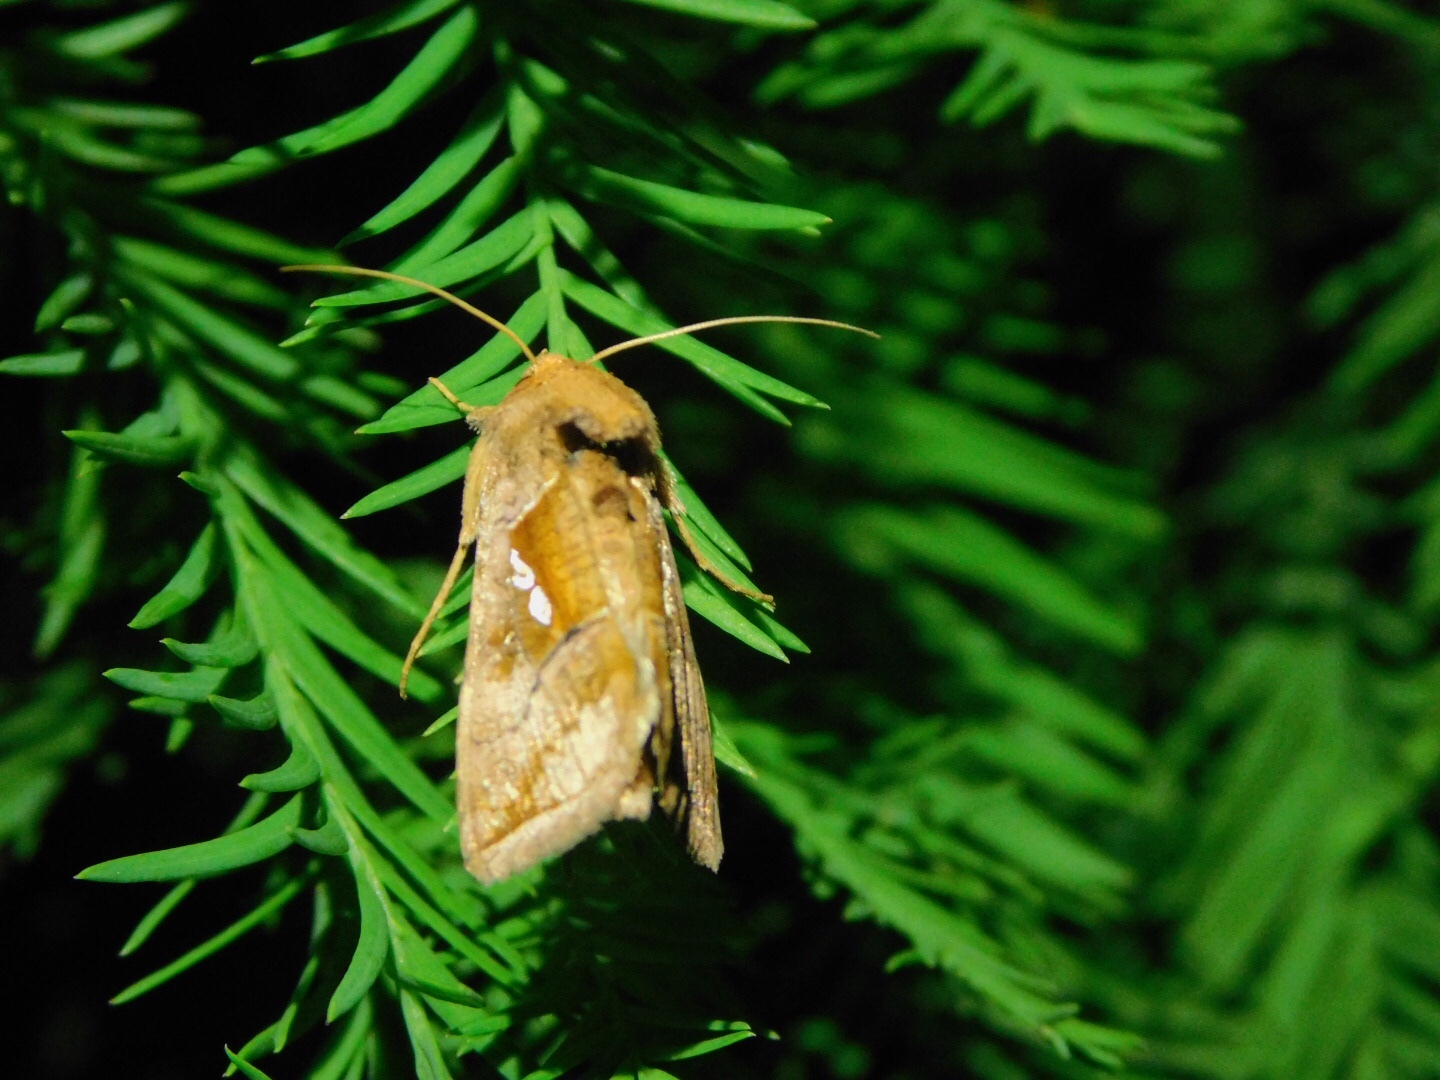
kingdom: Animalia
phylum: Arthropoda
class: Insecta
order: Lepidoptera
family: Noctuidae
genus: Enigmogramma
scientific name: Enigmogramma basigera
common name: Pink-washed looper moth
